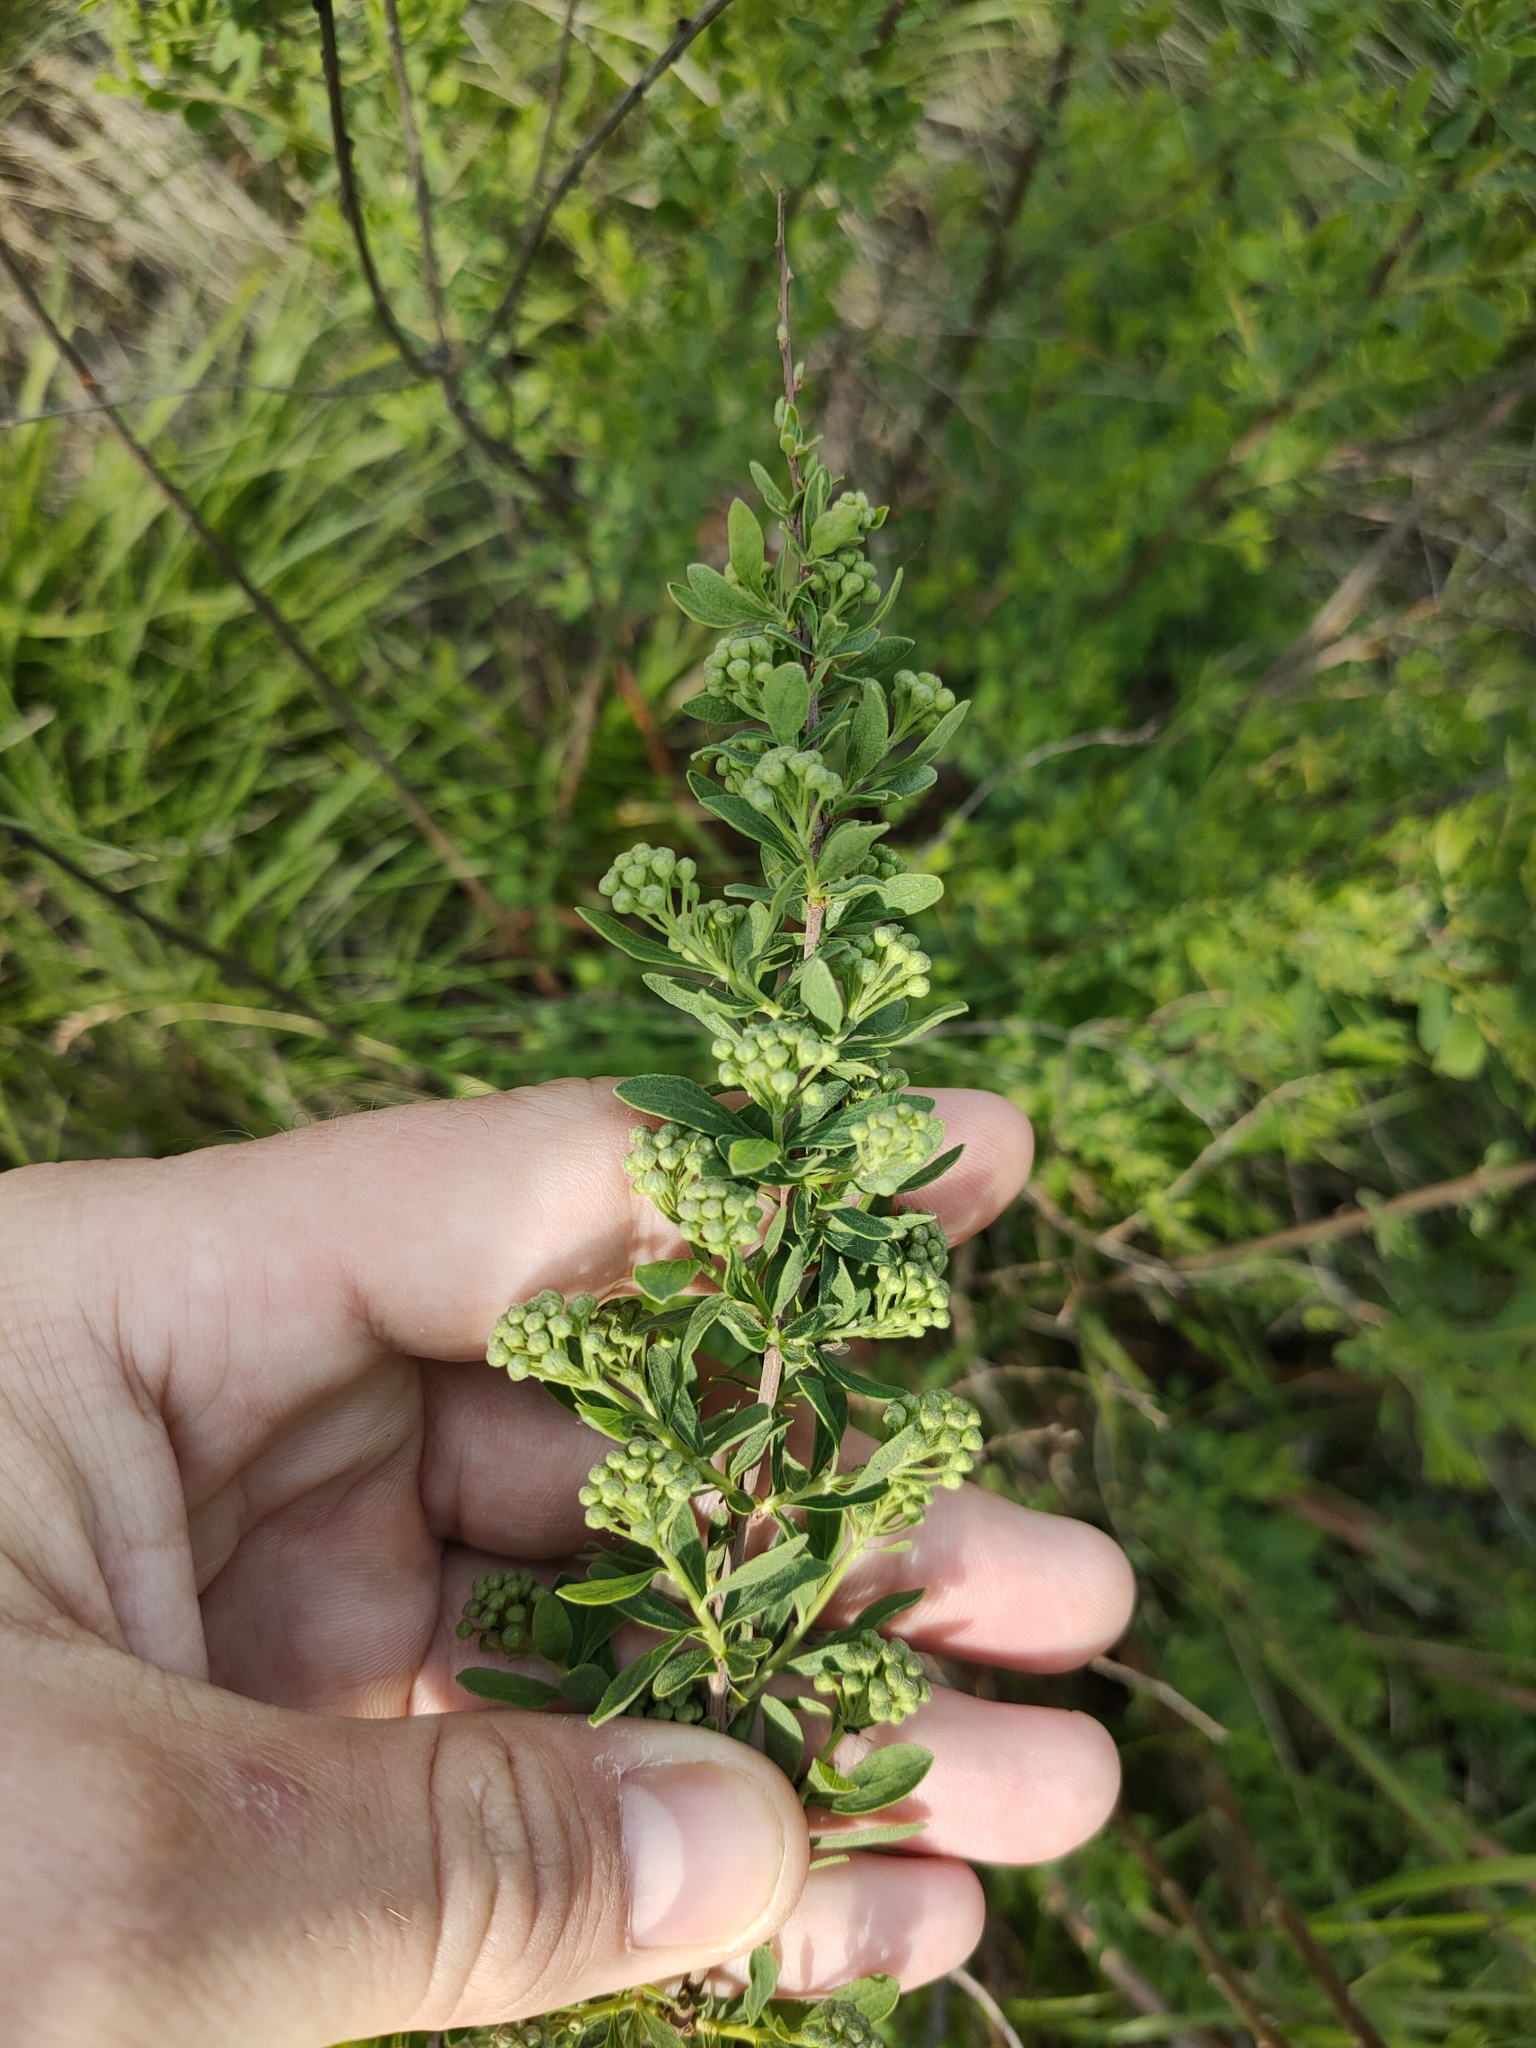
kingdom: Plantae
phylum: Tracheophyta
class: Magnoliopsida
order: Rosales
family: Rosaceae
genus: Spiraea
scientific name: Spiraea crenata
